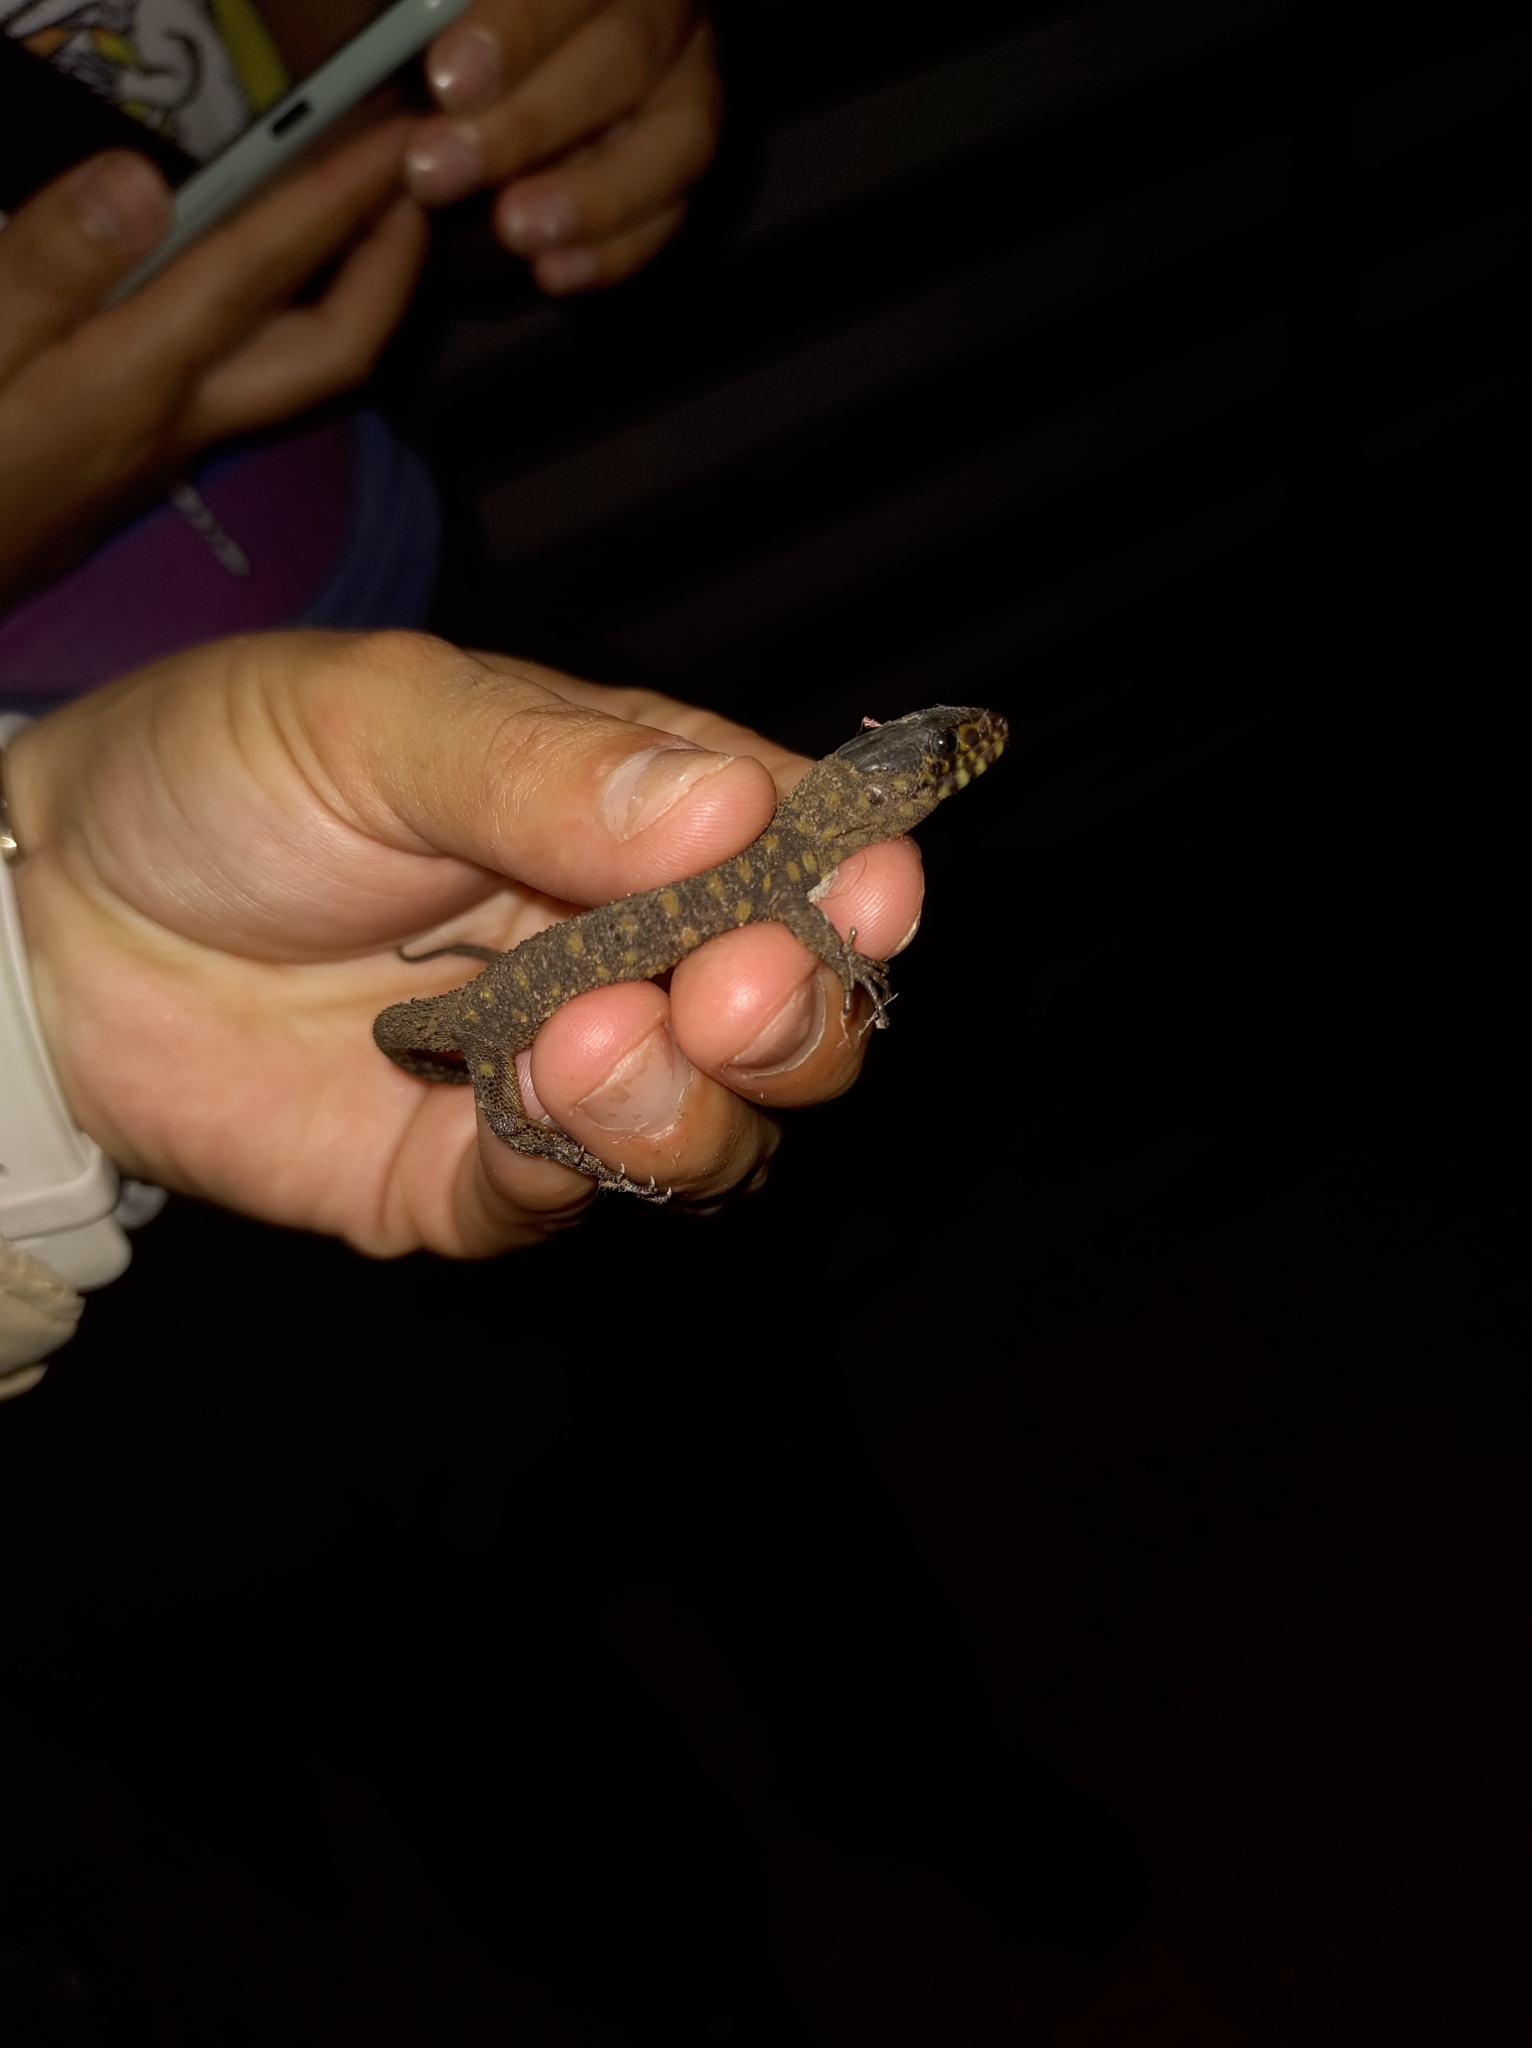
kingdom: Animalia
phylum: Chordata
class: Squamata
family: Xantusiidae
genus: Lepidophyma
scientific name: Lepidophyma flavimaculatum
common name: Yellow-spotted night lizard
